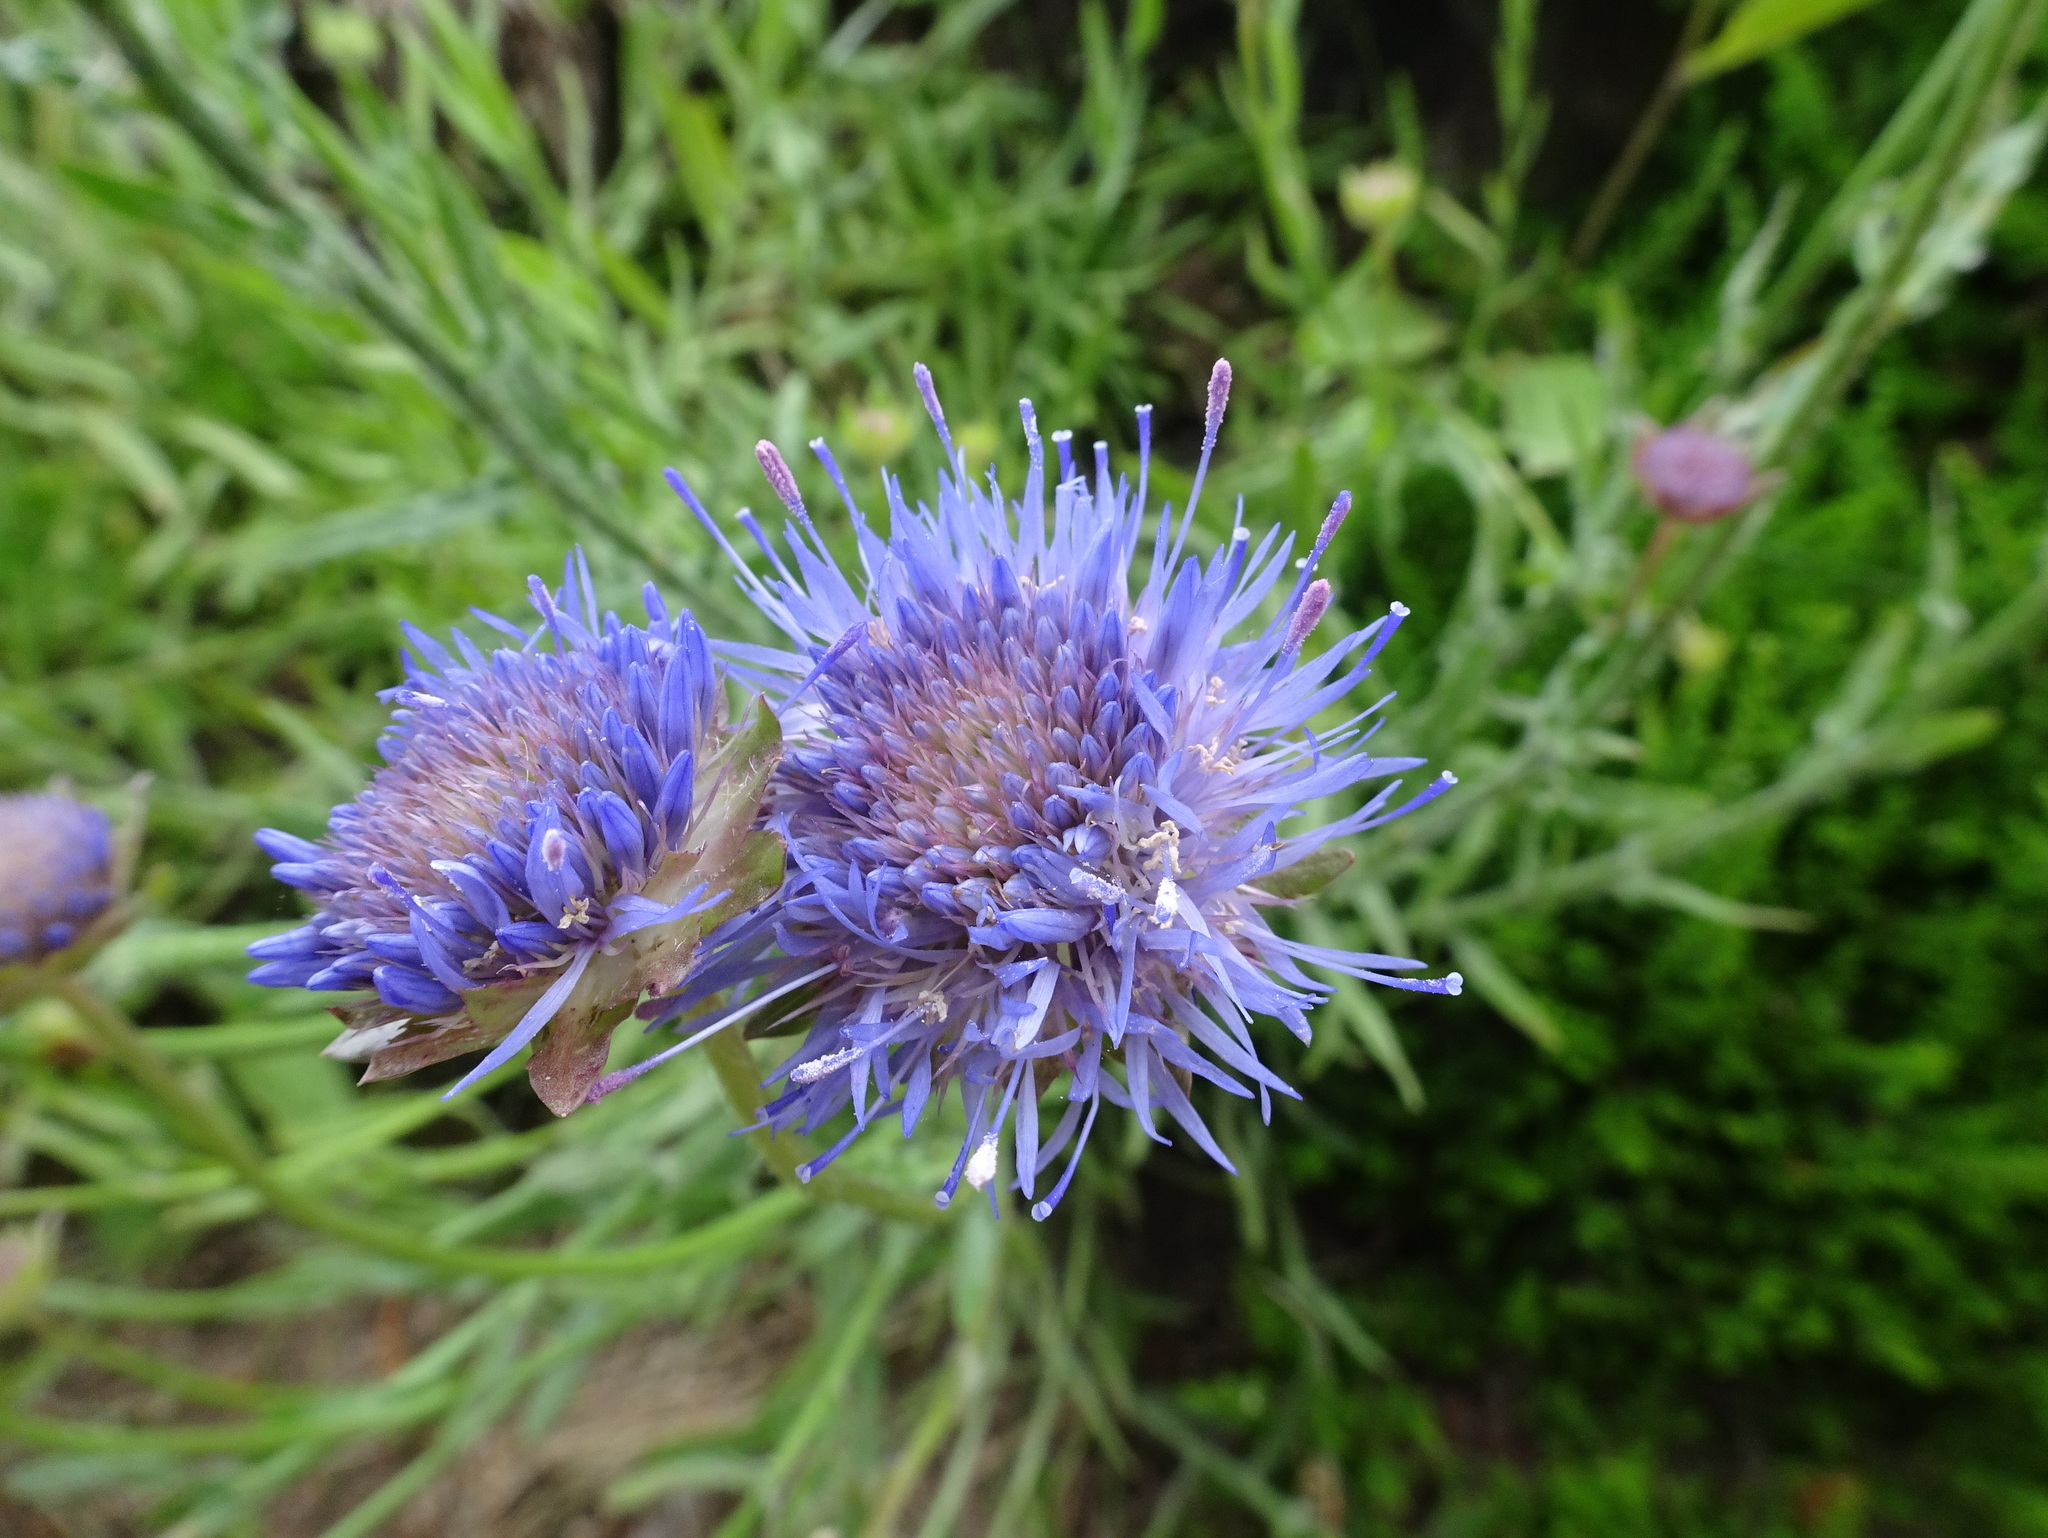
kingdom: Plantae
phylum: Tracheophyta
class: Magnoliopsida
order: Asterales
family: Campanulaceae
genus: Jasione
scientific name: Jasione laevis
